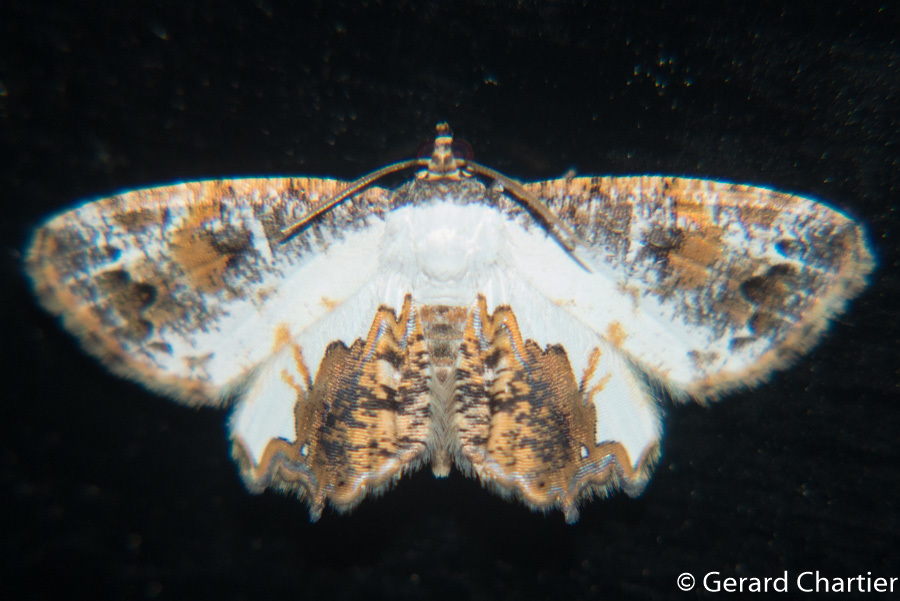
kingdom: Animalia
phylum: Arthropoda
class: Insecta
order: Lepidoptera
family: Uraniidae
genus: Europlema
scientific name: Europlema desistaria
